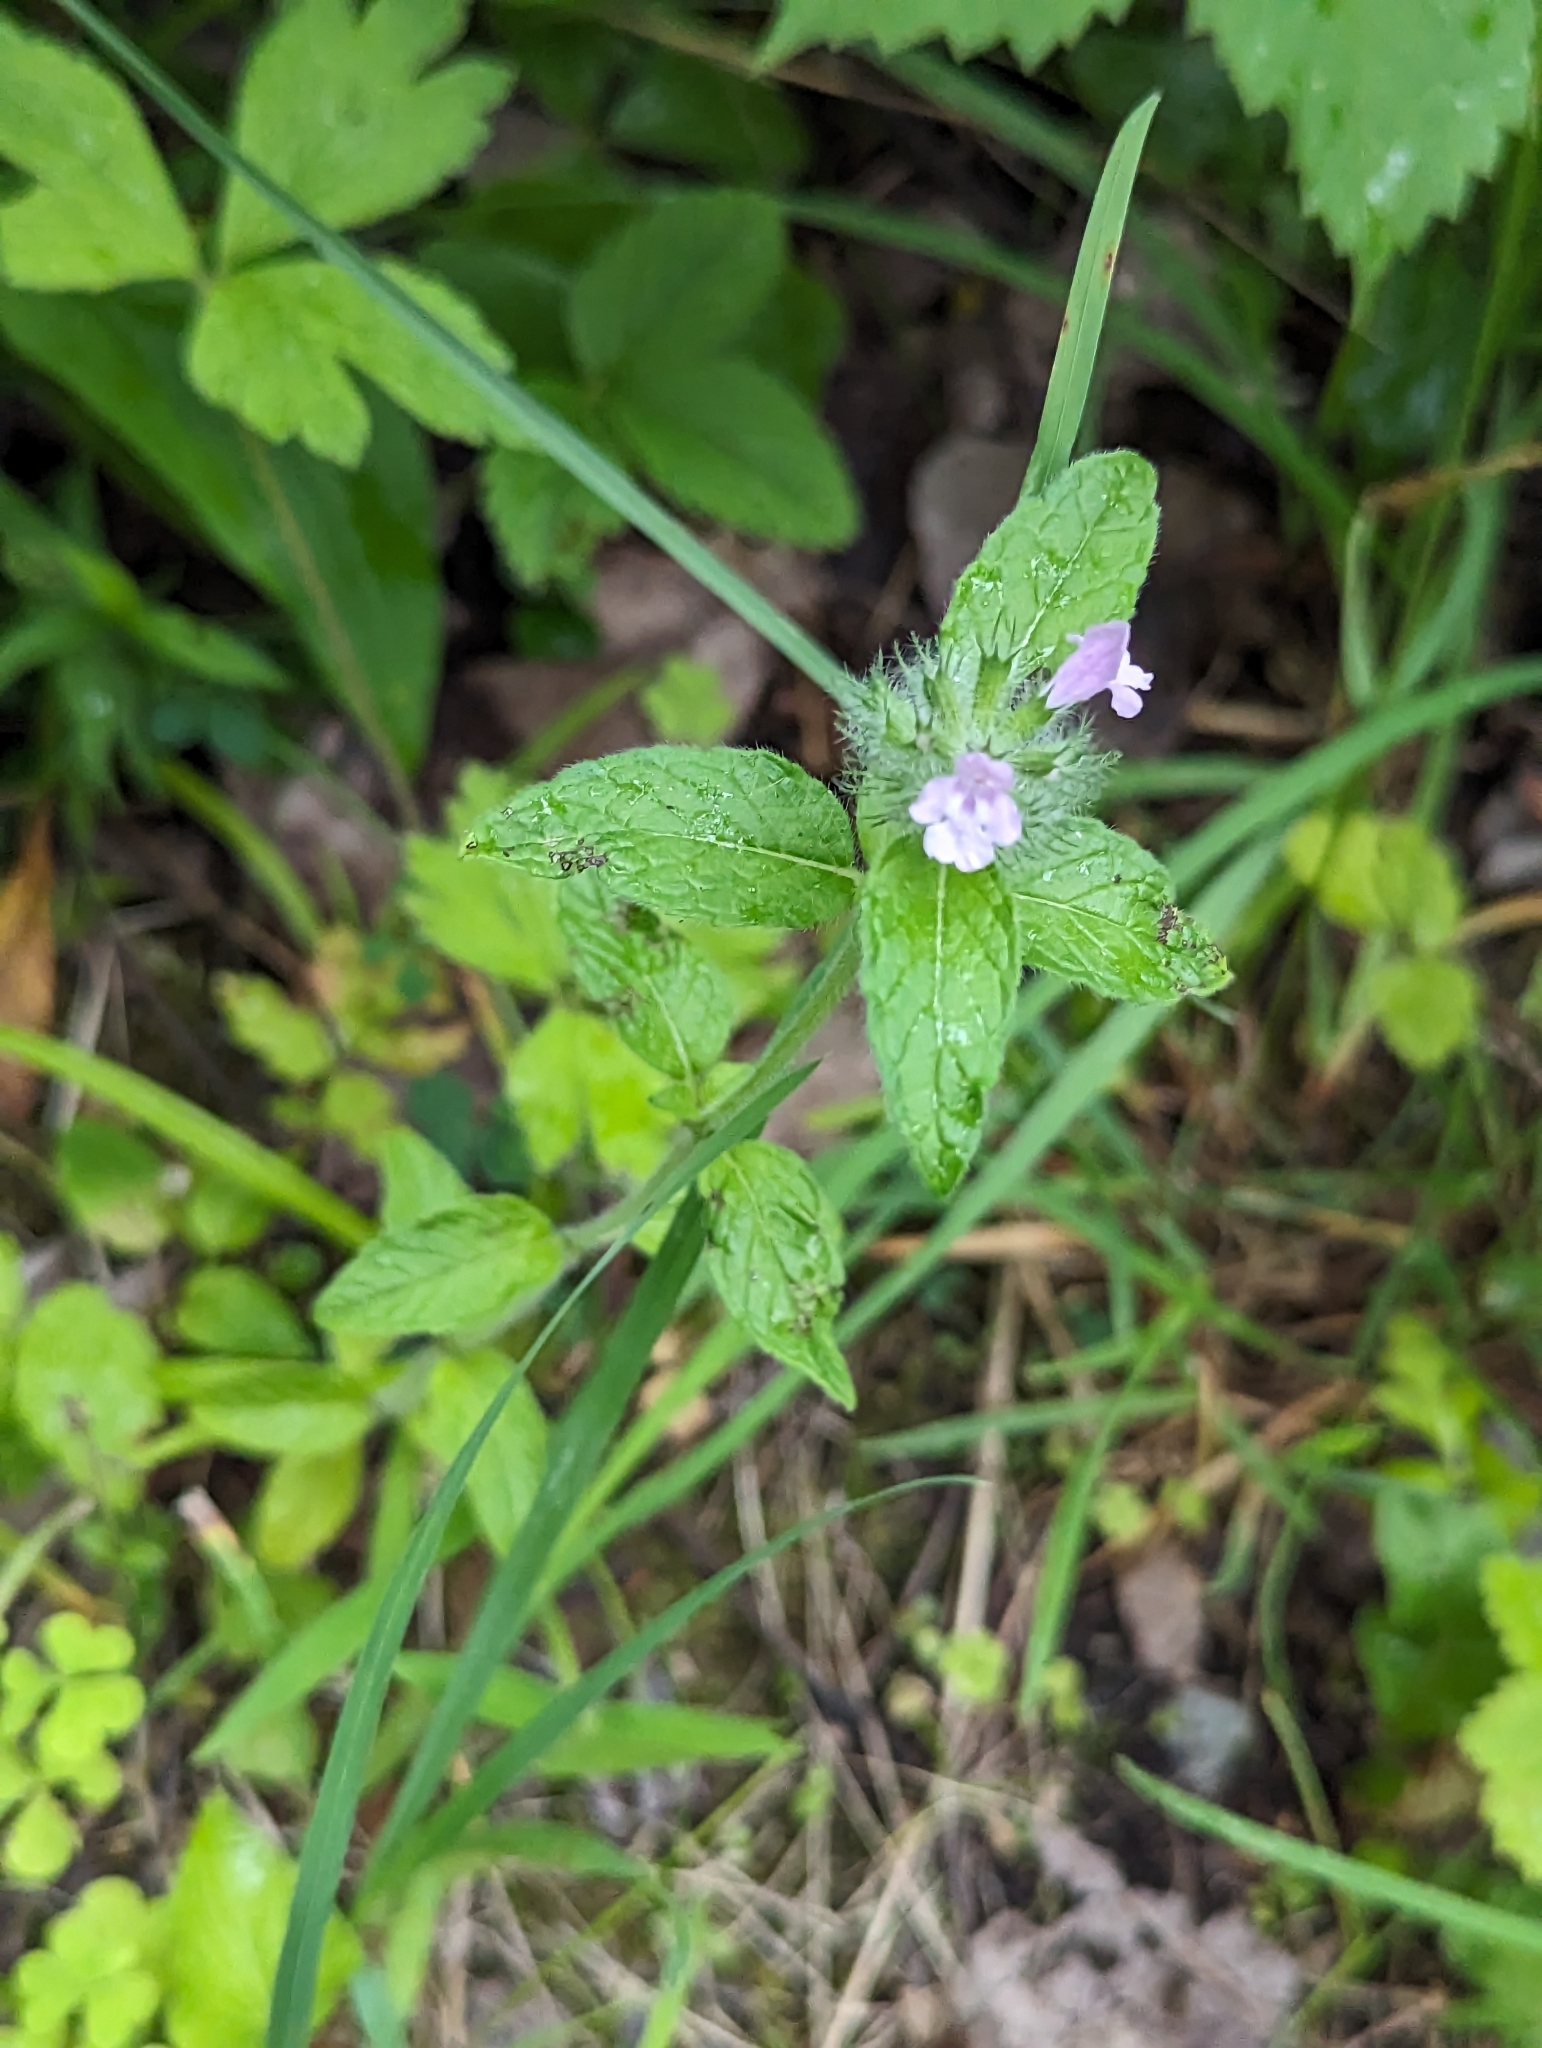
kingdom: Plantae
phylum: Tracheophyta
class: Magnoliopsida
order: Lamiales
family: Lamiaceae
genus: Clinopodium
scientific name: Clinopodium vulgare
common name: Wild basil
